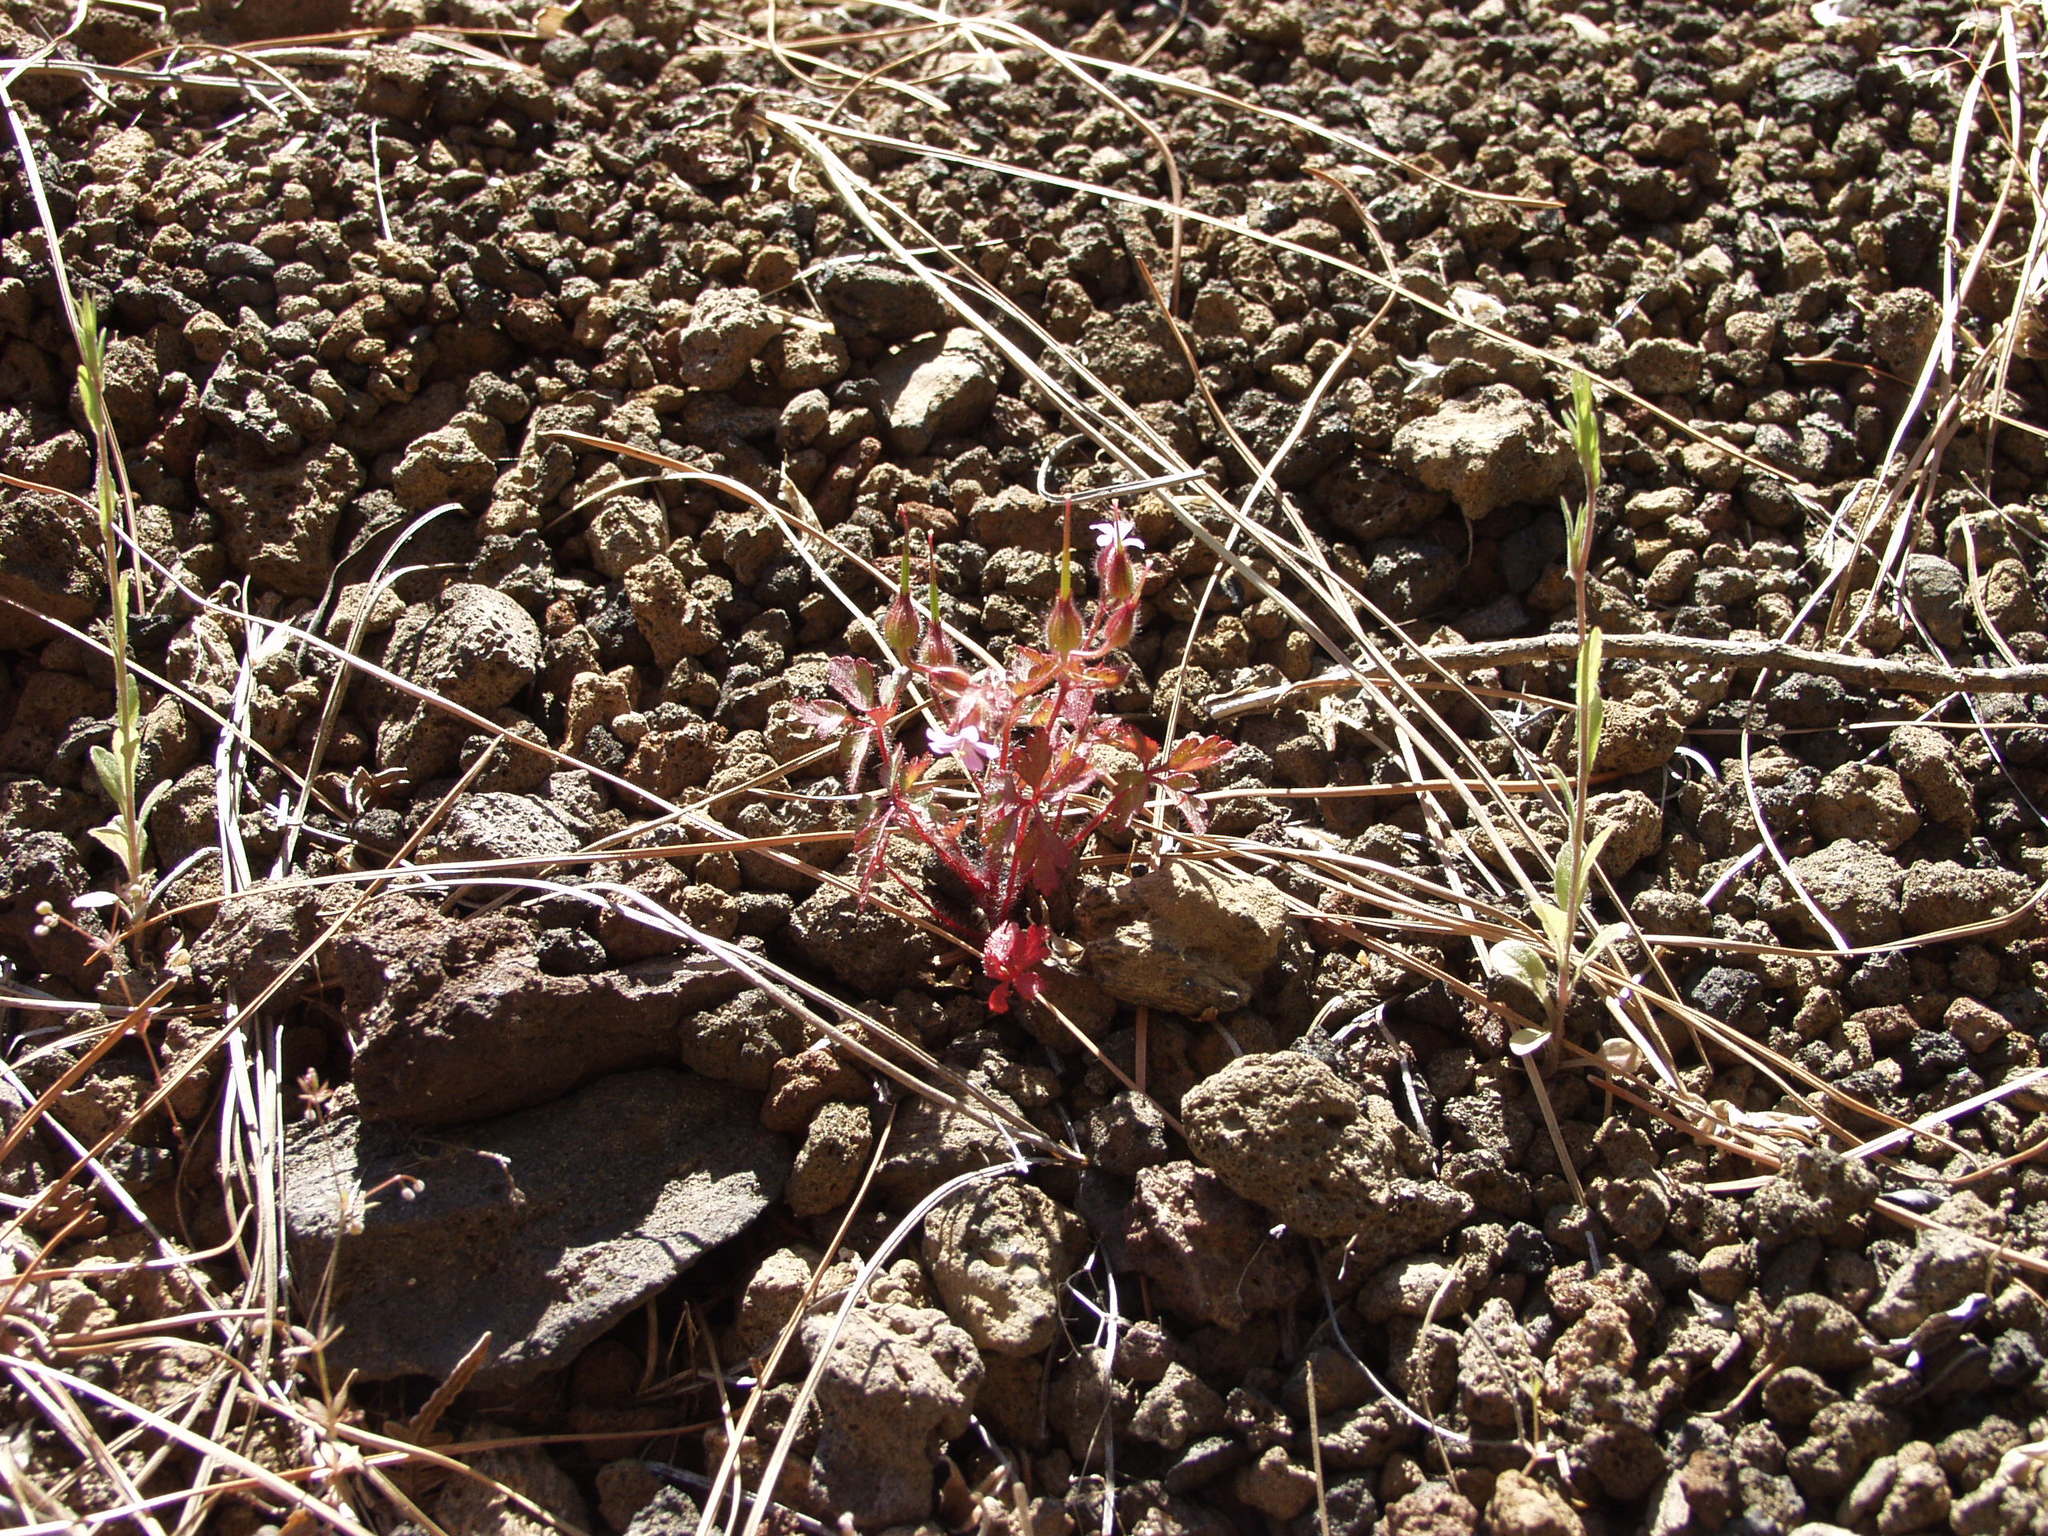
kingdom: Plantae
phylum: Tracheophyta
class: Magnoliopsida
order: Geraniales
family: Geraniaceae
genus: Geranium
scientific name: Geranium purpureum
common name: Little-robin
